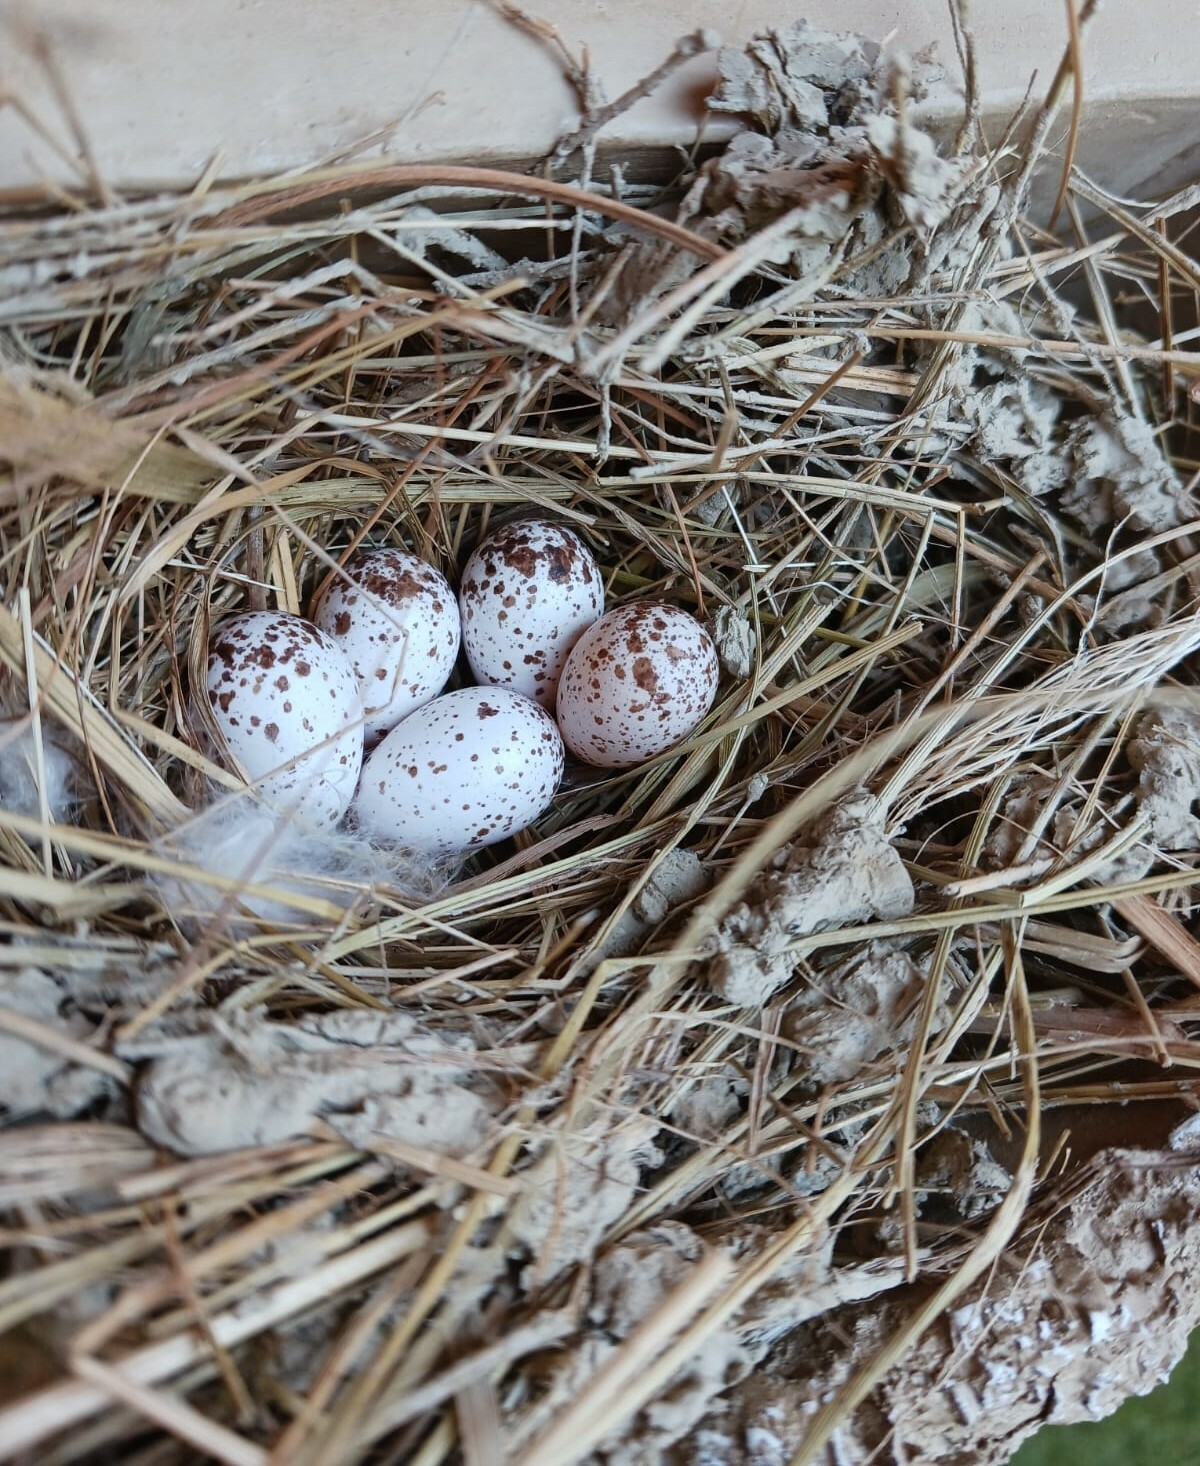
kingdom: Animalia
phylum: Chordata
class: Aves
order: Passeriformes
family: Hirundinidae
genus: Hirundo
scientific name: Hirundo rustica
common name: Barn swallow
